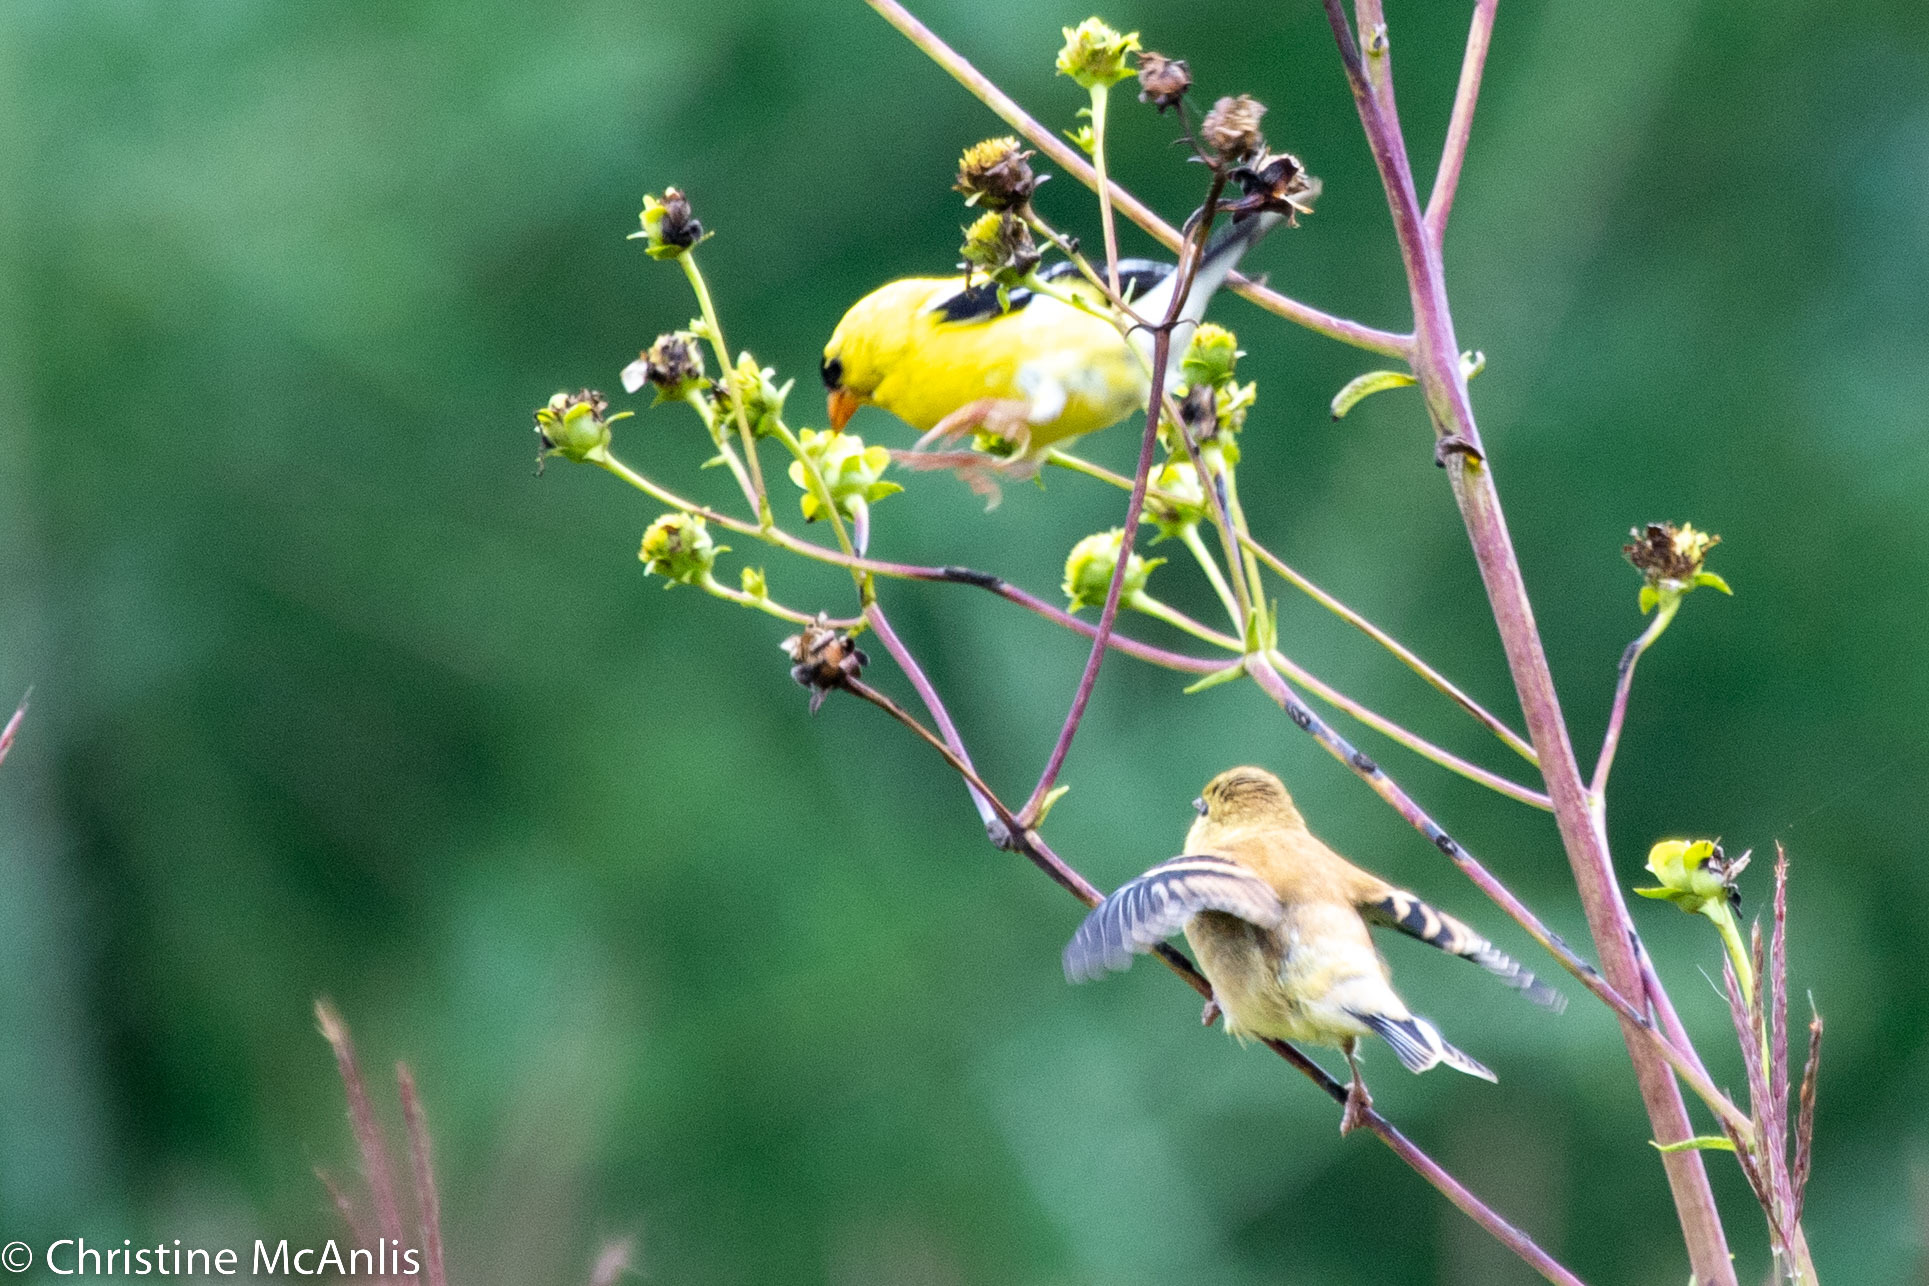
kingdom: Animalia
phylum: Chordata
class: Aves
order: Passeriformes
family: Fringillidae
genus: Spinus
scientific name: Spinus tristis
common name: American goldfinch
